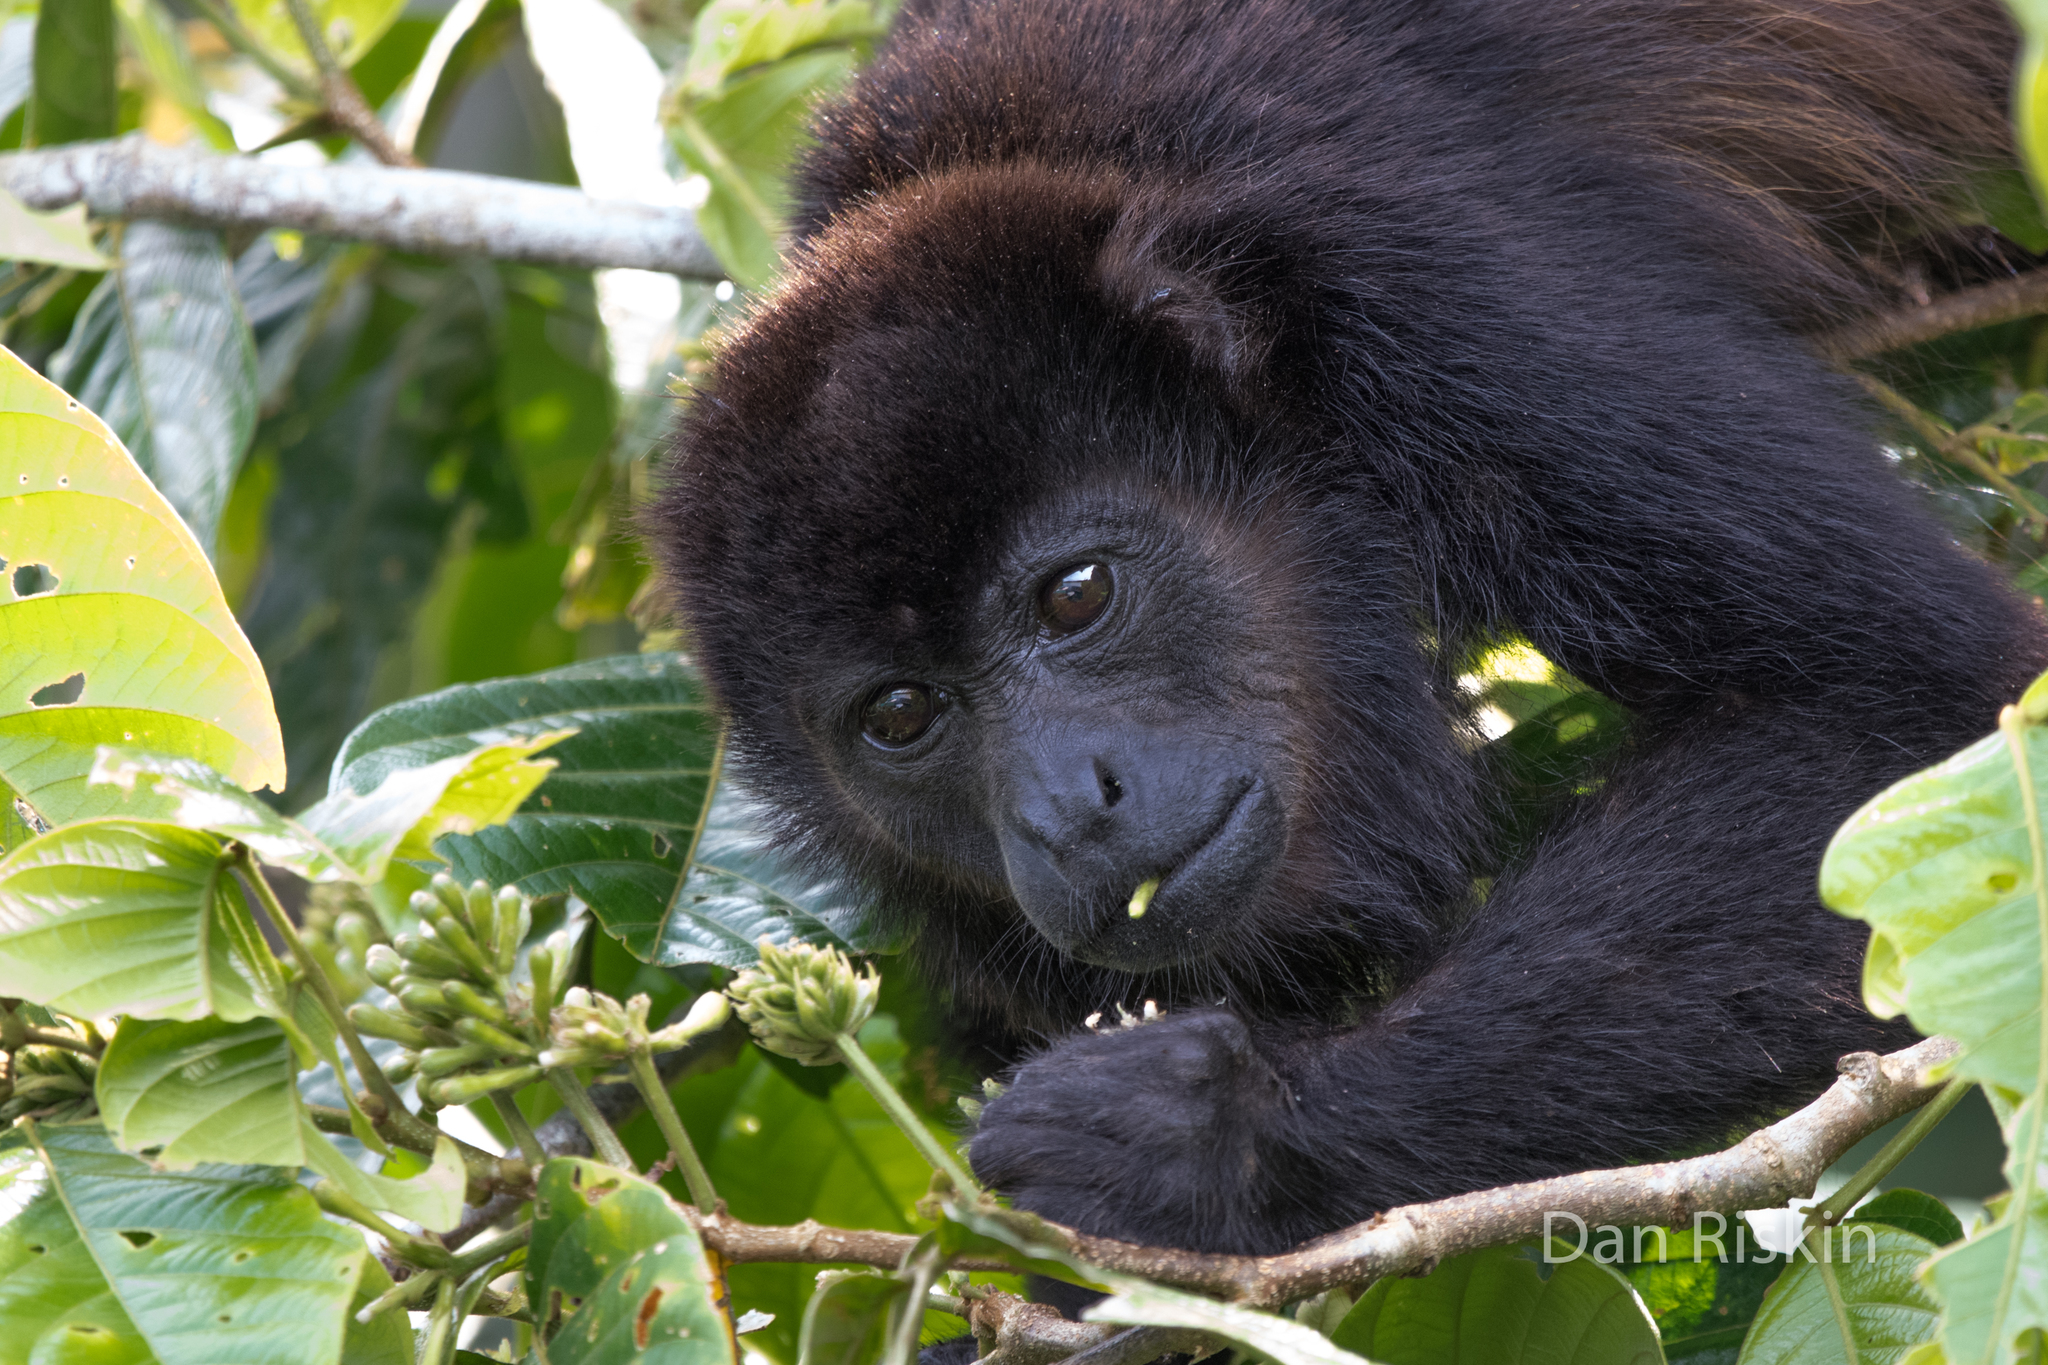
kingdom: Animalia
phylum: Chordata
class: Mammalia
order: Primates
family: Atelidae
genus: Alouatta
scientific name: Alouatta palliata
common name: Mantled howler
